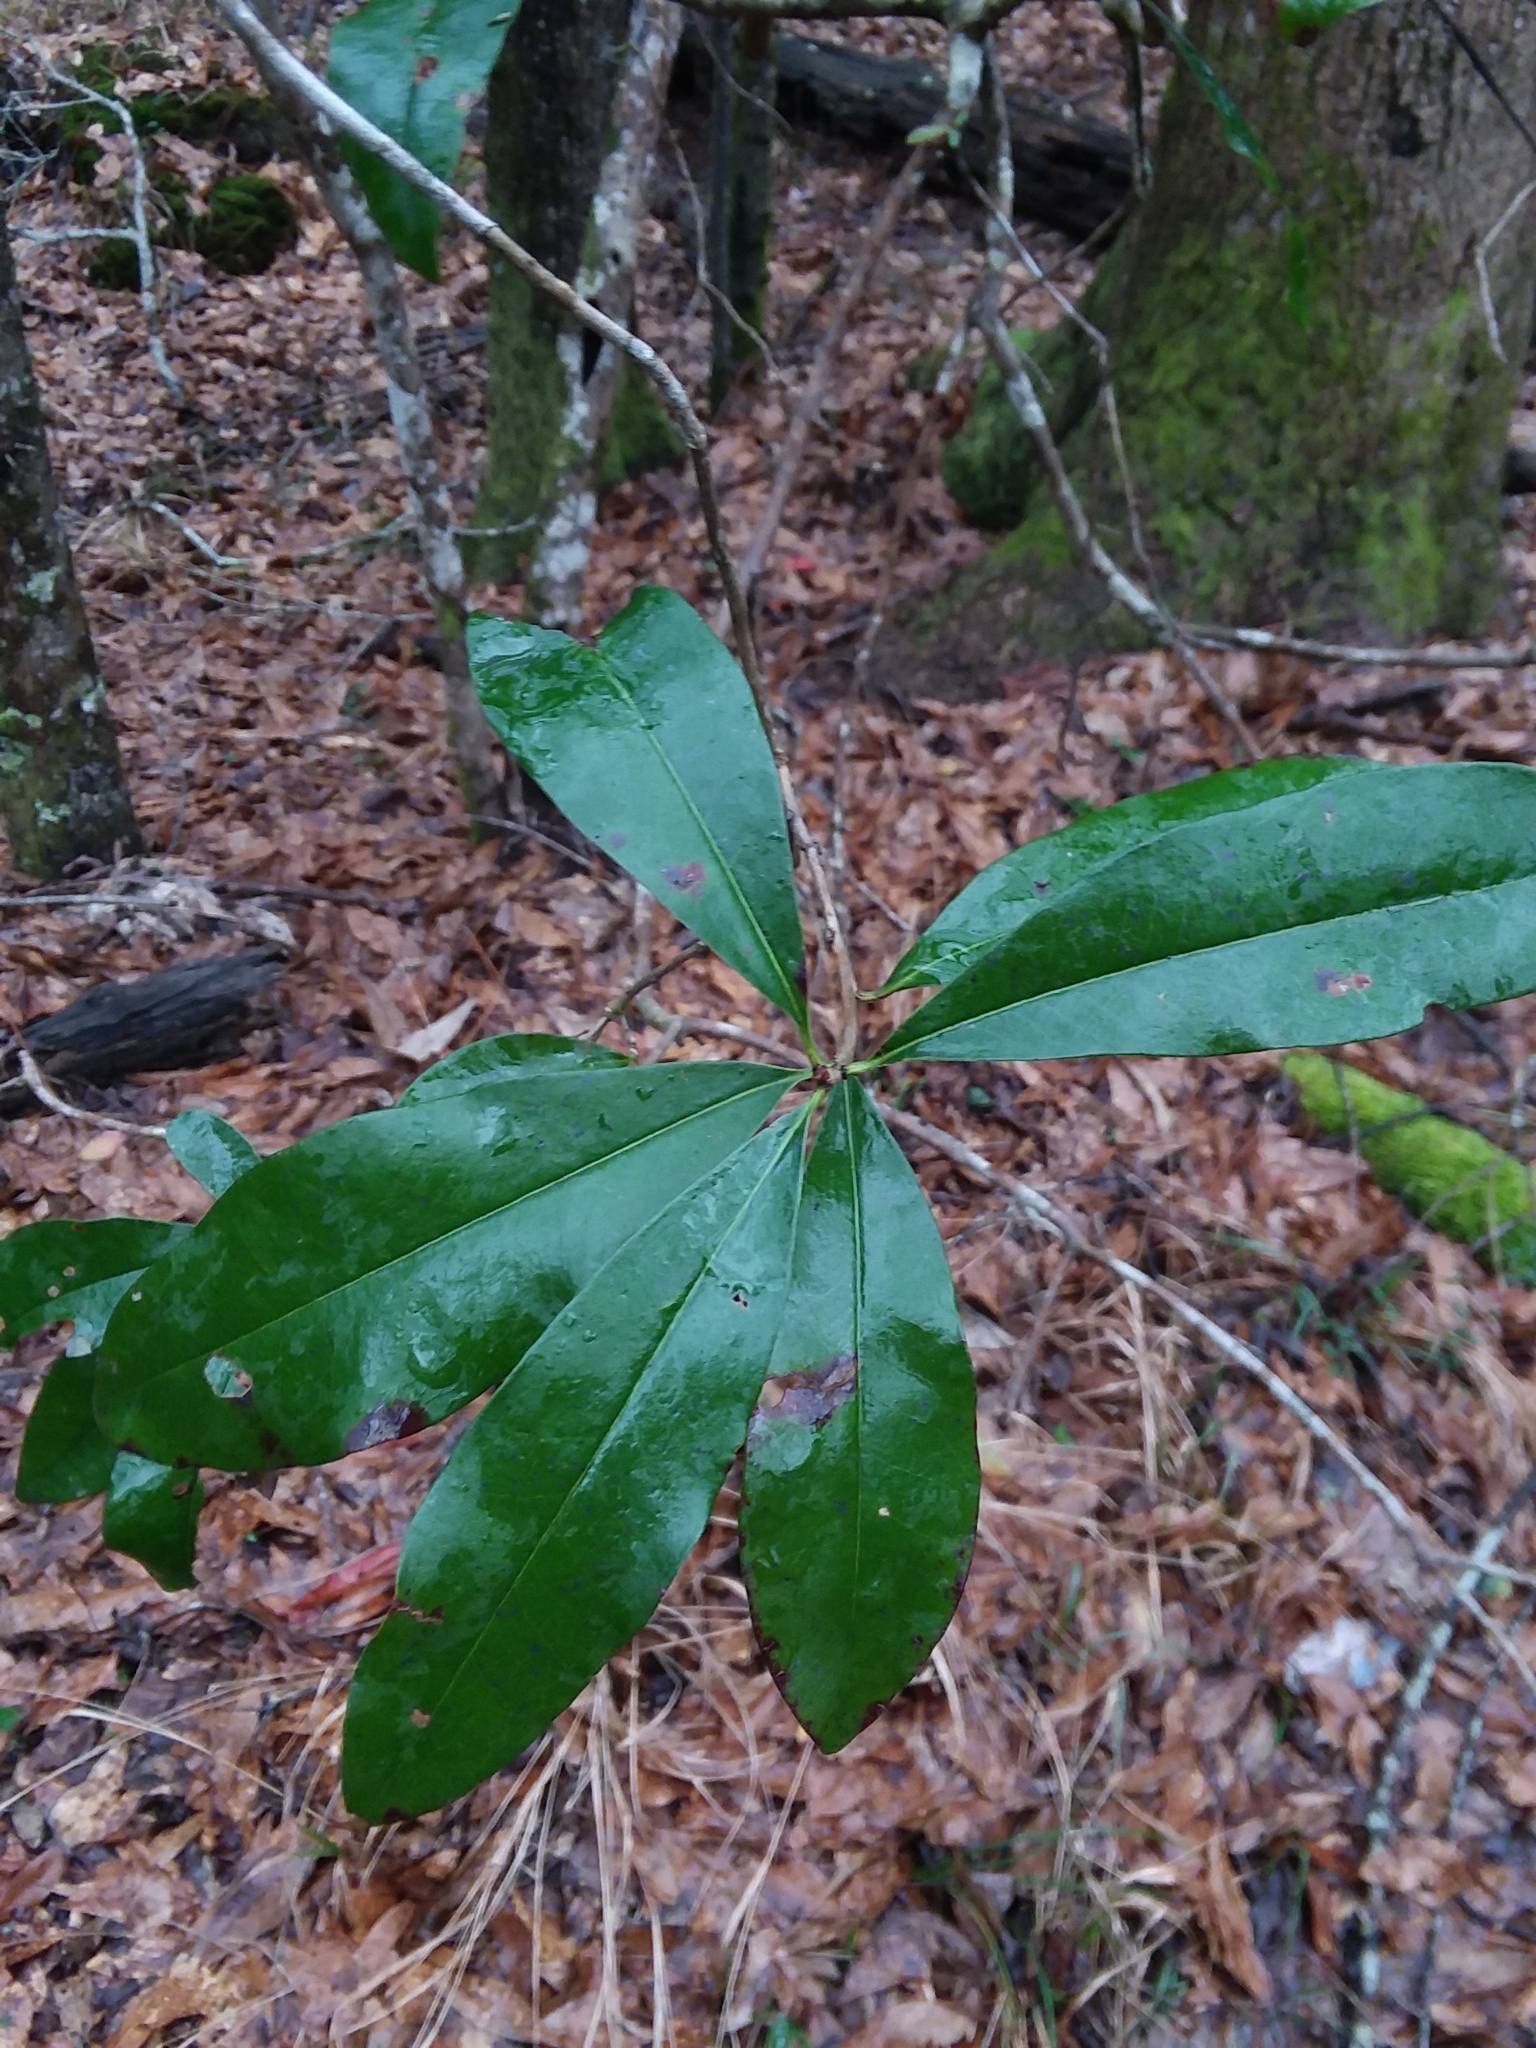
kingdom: Plantae
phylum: Tracheophyta
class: Magnoliopsida
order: Ericales
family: Cyrillaceae
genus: Cyrilla
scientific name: Cyrilla racemiflora
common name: Black titi
